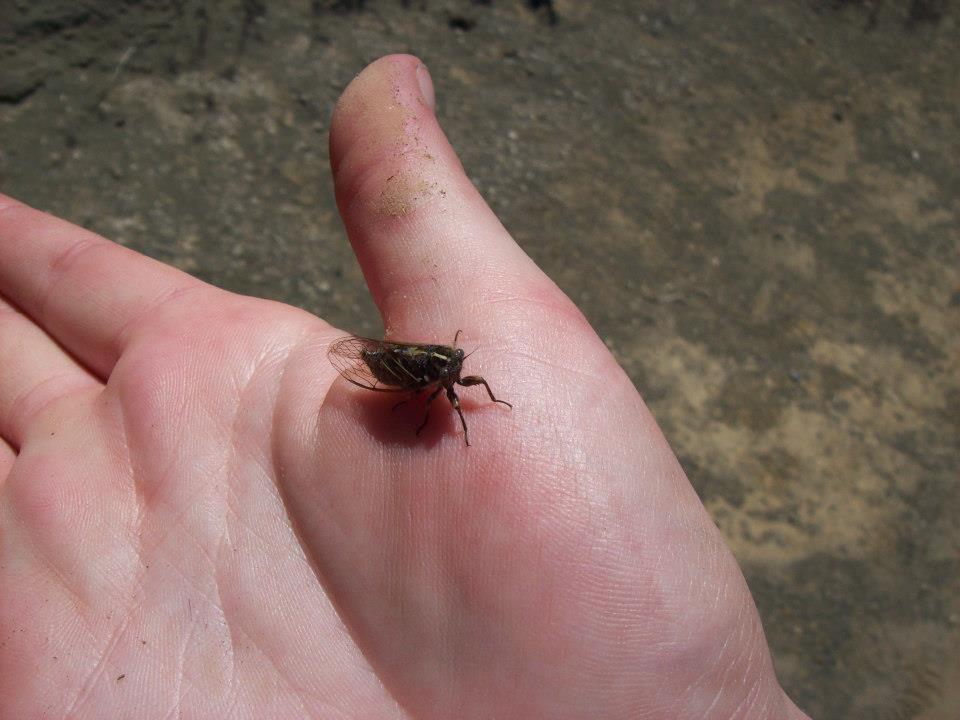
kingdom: Animalia
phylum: Arthropoda
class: Insecta
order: Hemiptera
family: Cicadidae
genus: Kikihia
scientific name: Kikihia muta
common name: Variable cicada
